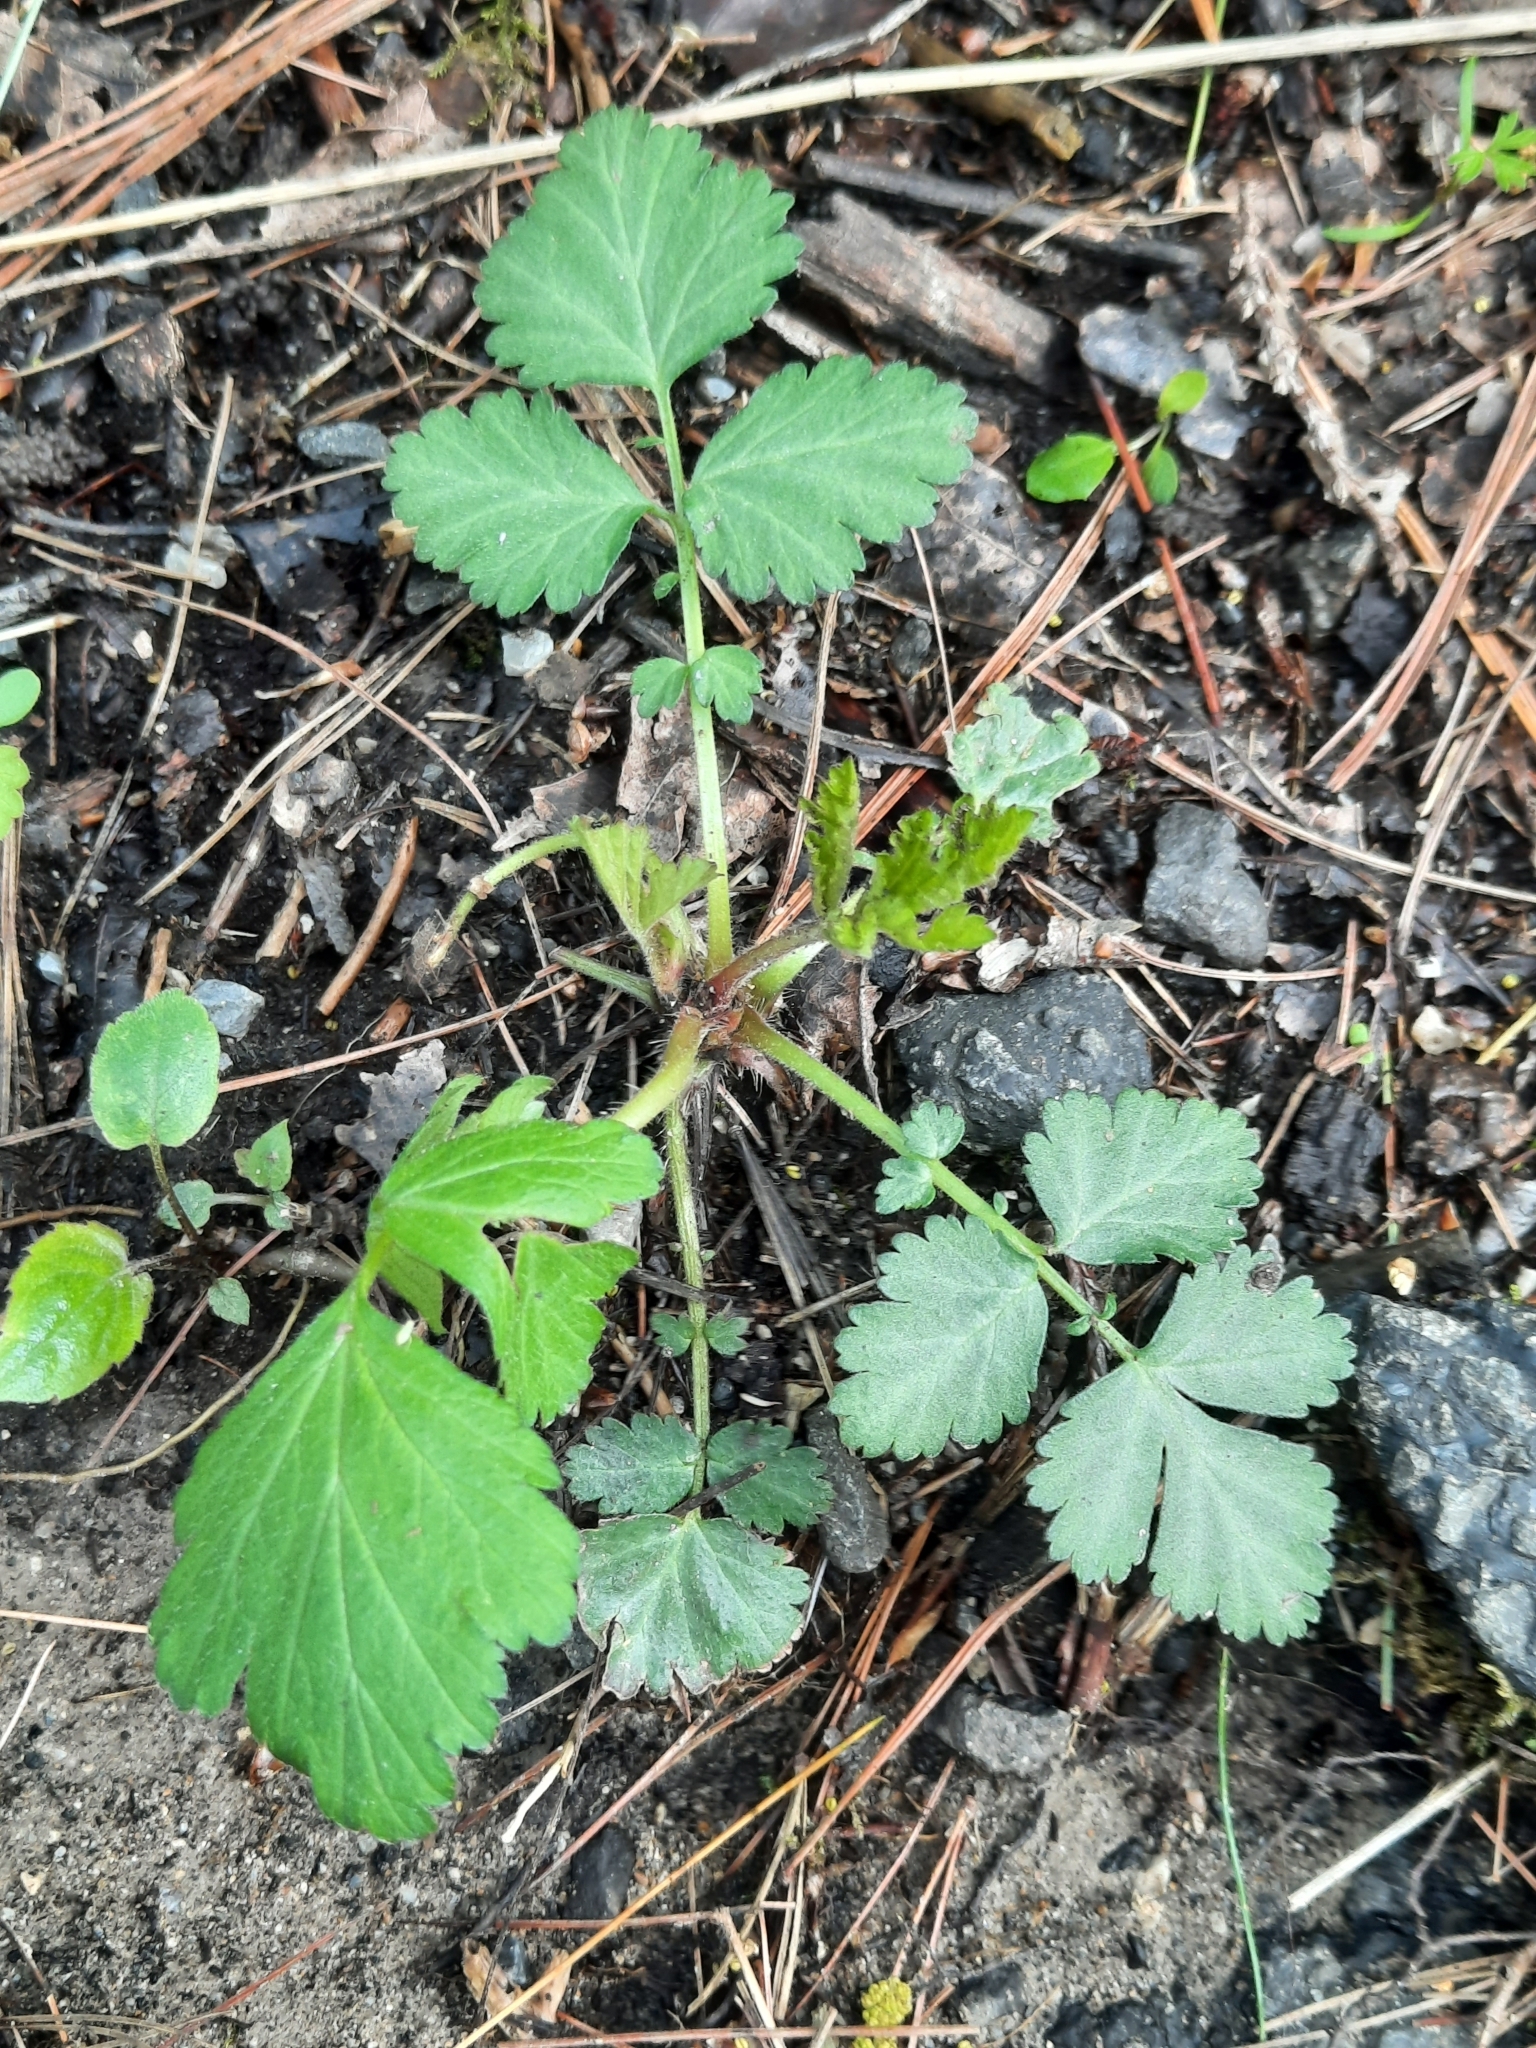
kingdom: Plantae
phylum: Tracheophyta
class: Magnoliopsida
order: Rosales
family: Rosaceae
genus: Geum
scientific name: Geum canadense
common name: White avens
